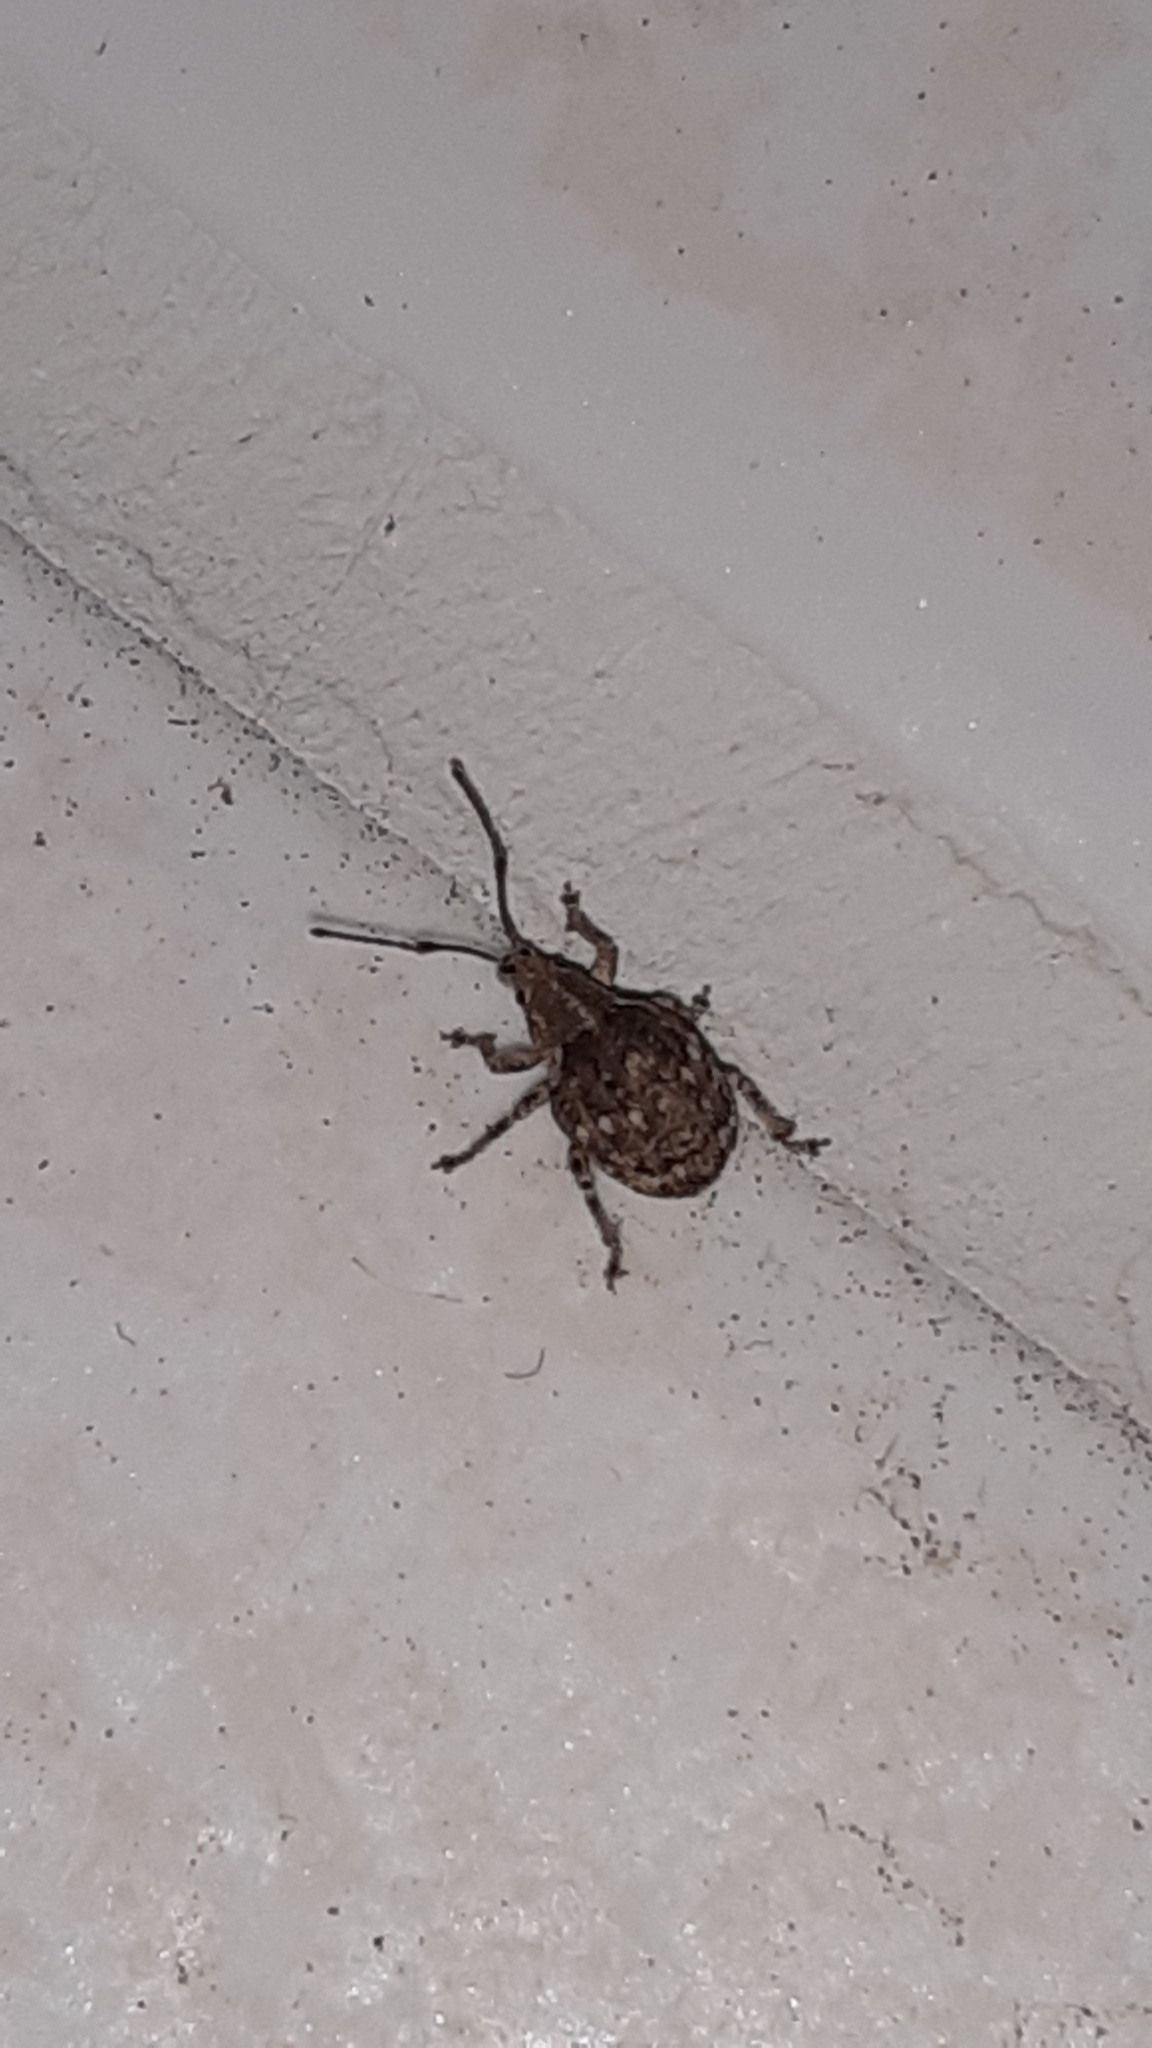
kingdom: Animalia
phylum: Arthropoda
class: Insecta
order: Coleoptera
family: Curculionidae
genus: Ellimenistes
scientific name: Ellimenistes laesicollis
